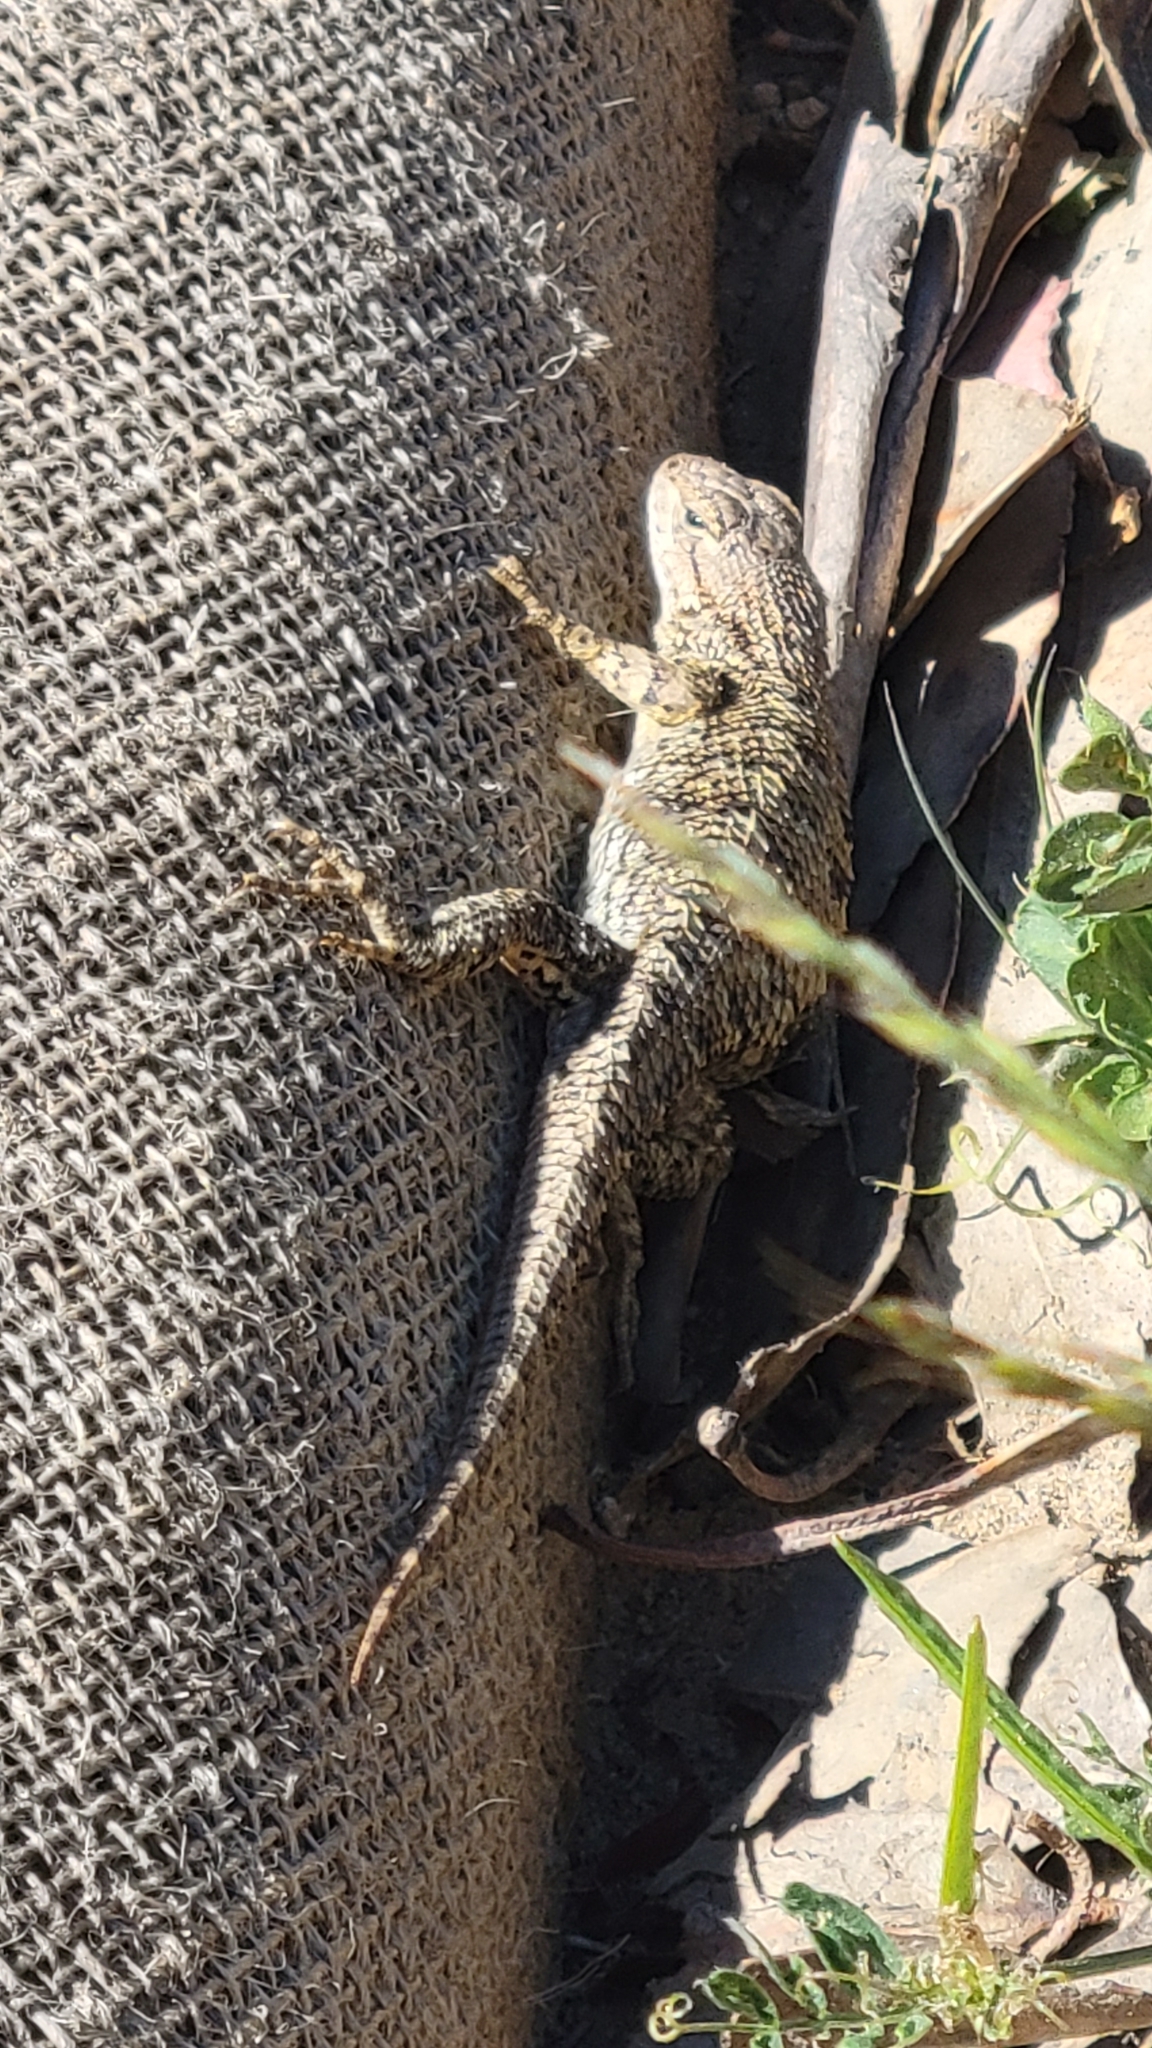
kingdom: Animalia
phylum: Chordata
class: Squamata
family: Phrynosomatidae
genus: Sceloporus
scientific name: Sceloporus occidentalis
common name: Western fence lizard
